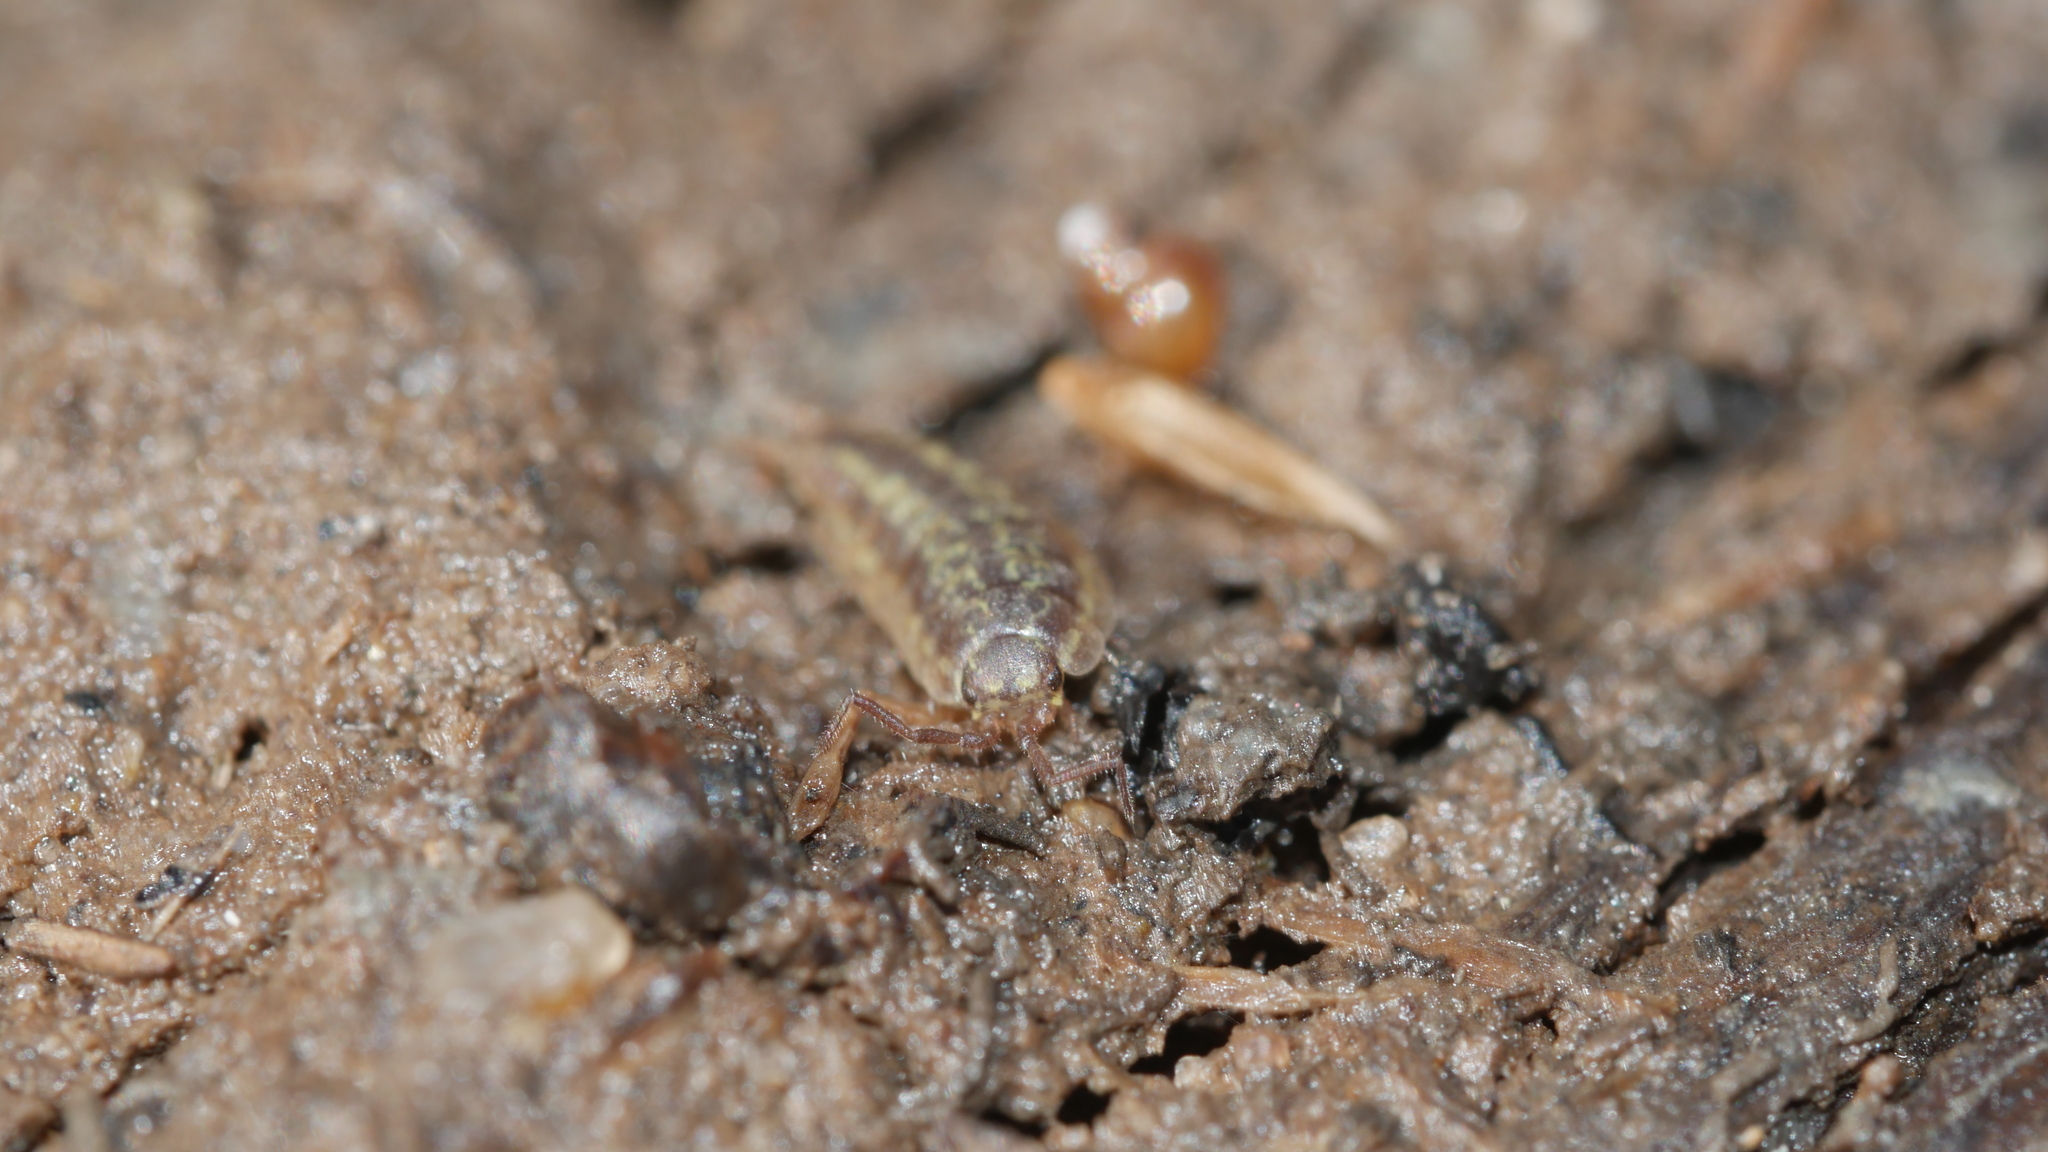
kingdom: Animalia
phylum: Arthropoda
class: Malacostraca
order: Isopoda
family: Halophilosciidae
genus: Littorophiloscia
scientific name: Littorophiloscia vittata
